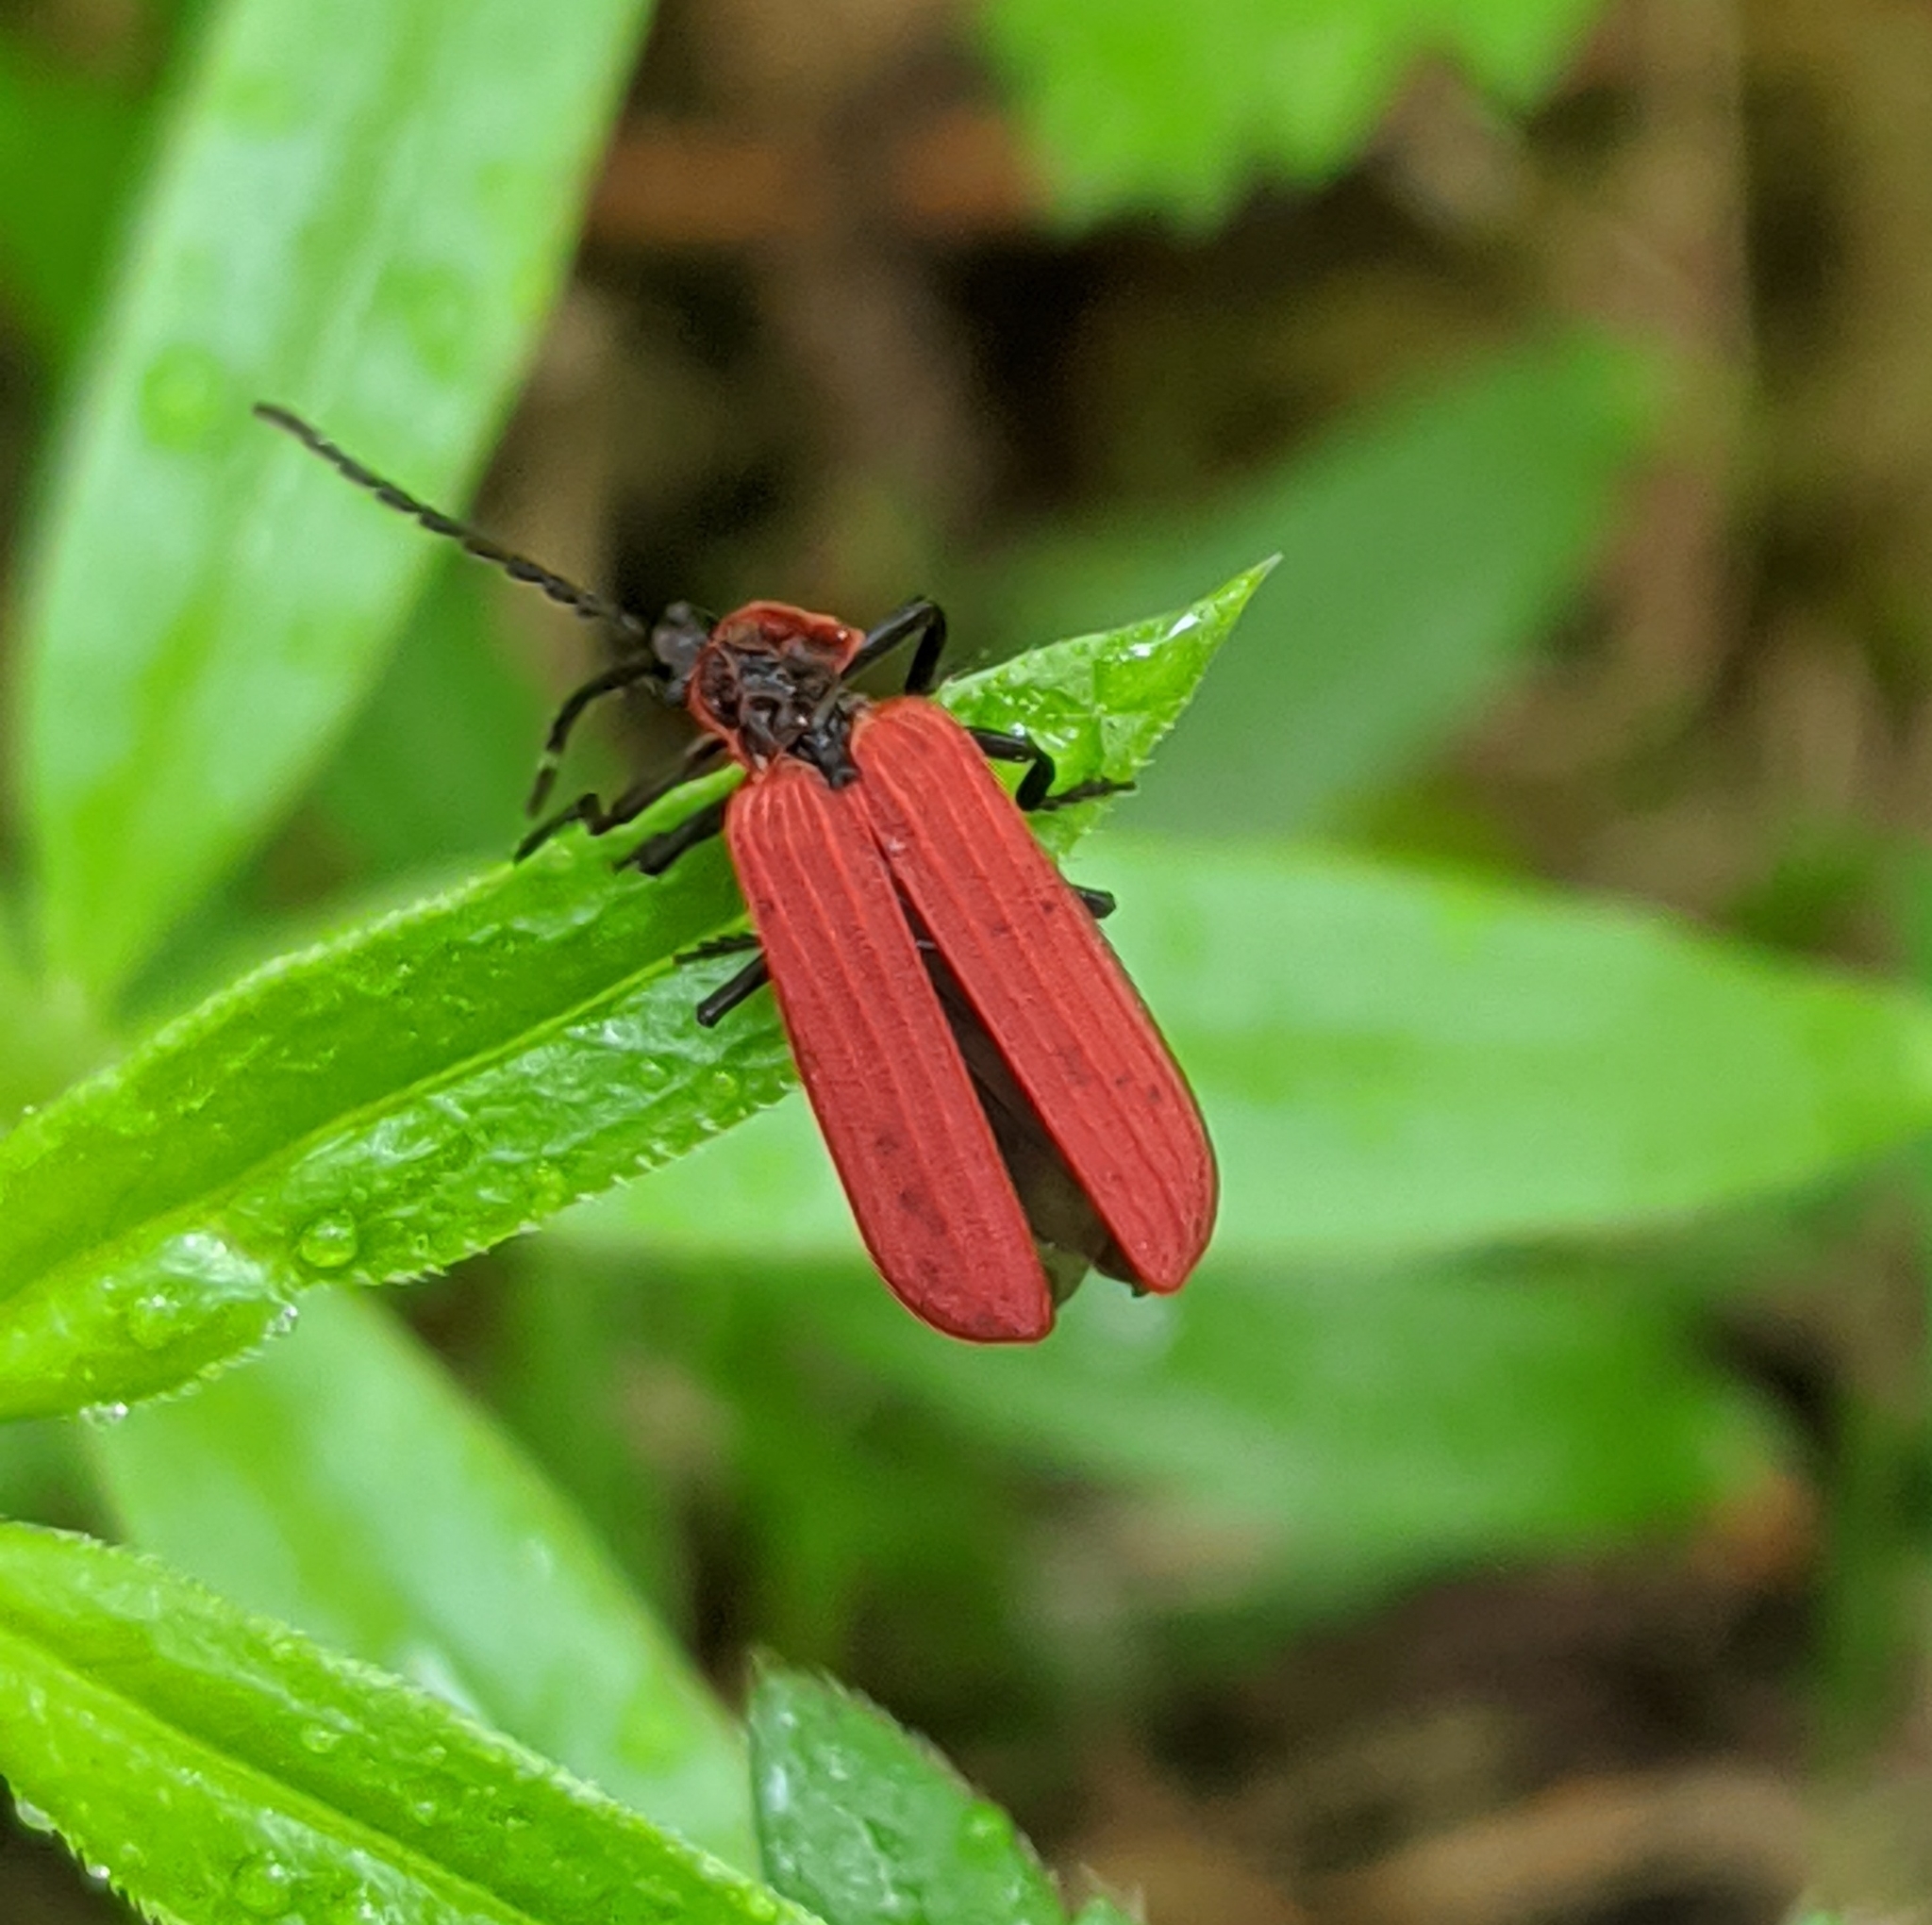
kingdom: Animalia
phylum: Arthropoda
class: Insecta
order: Coleoptera
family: Lycidae
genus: Dictyoptera
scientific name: Dictyoptera aurora
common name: Golden net-winged beetle
